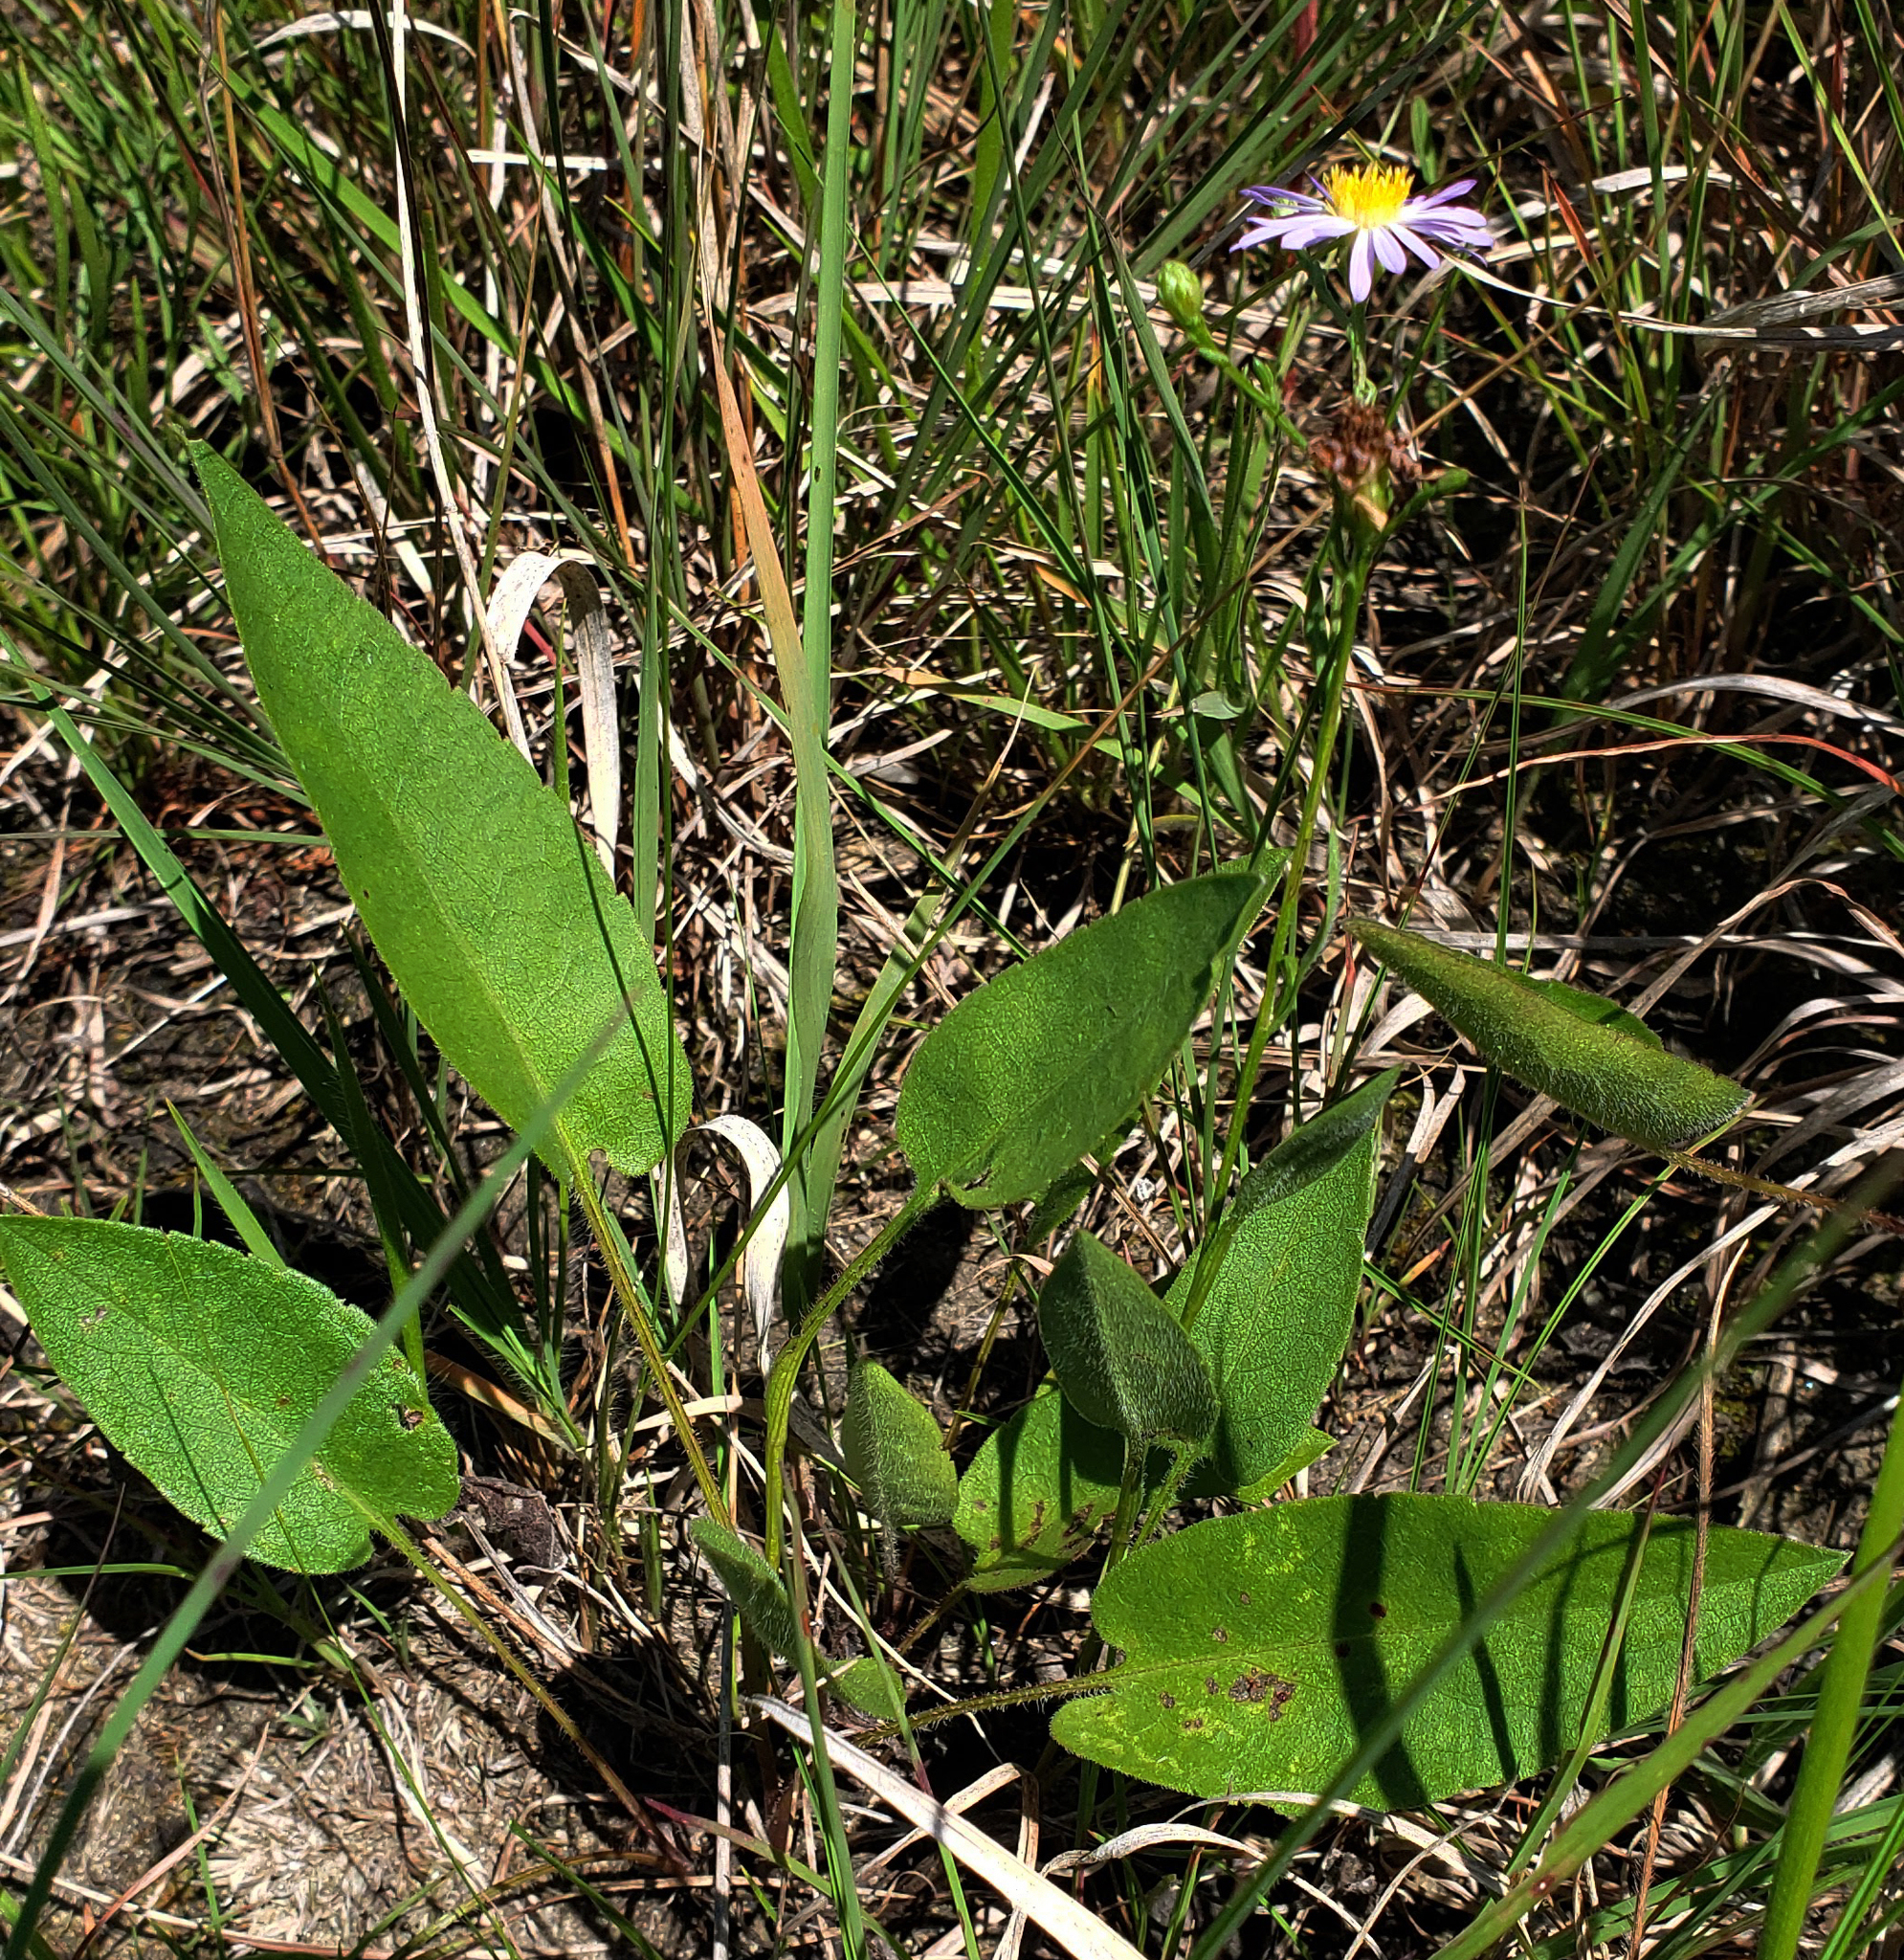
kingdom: Plantae
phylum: Tracheophyta
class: Magnoliopsida
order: Asterales
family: Asteraceae
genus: Symphyotrichum
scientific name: Symphyotrichum oolentangiense
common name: Azure aster
